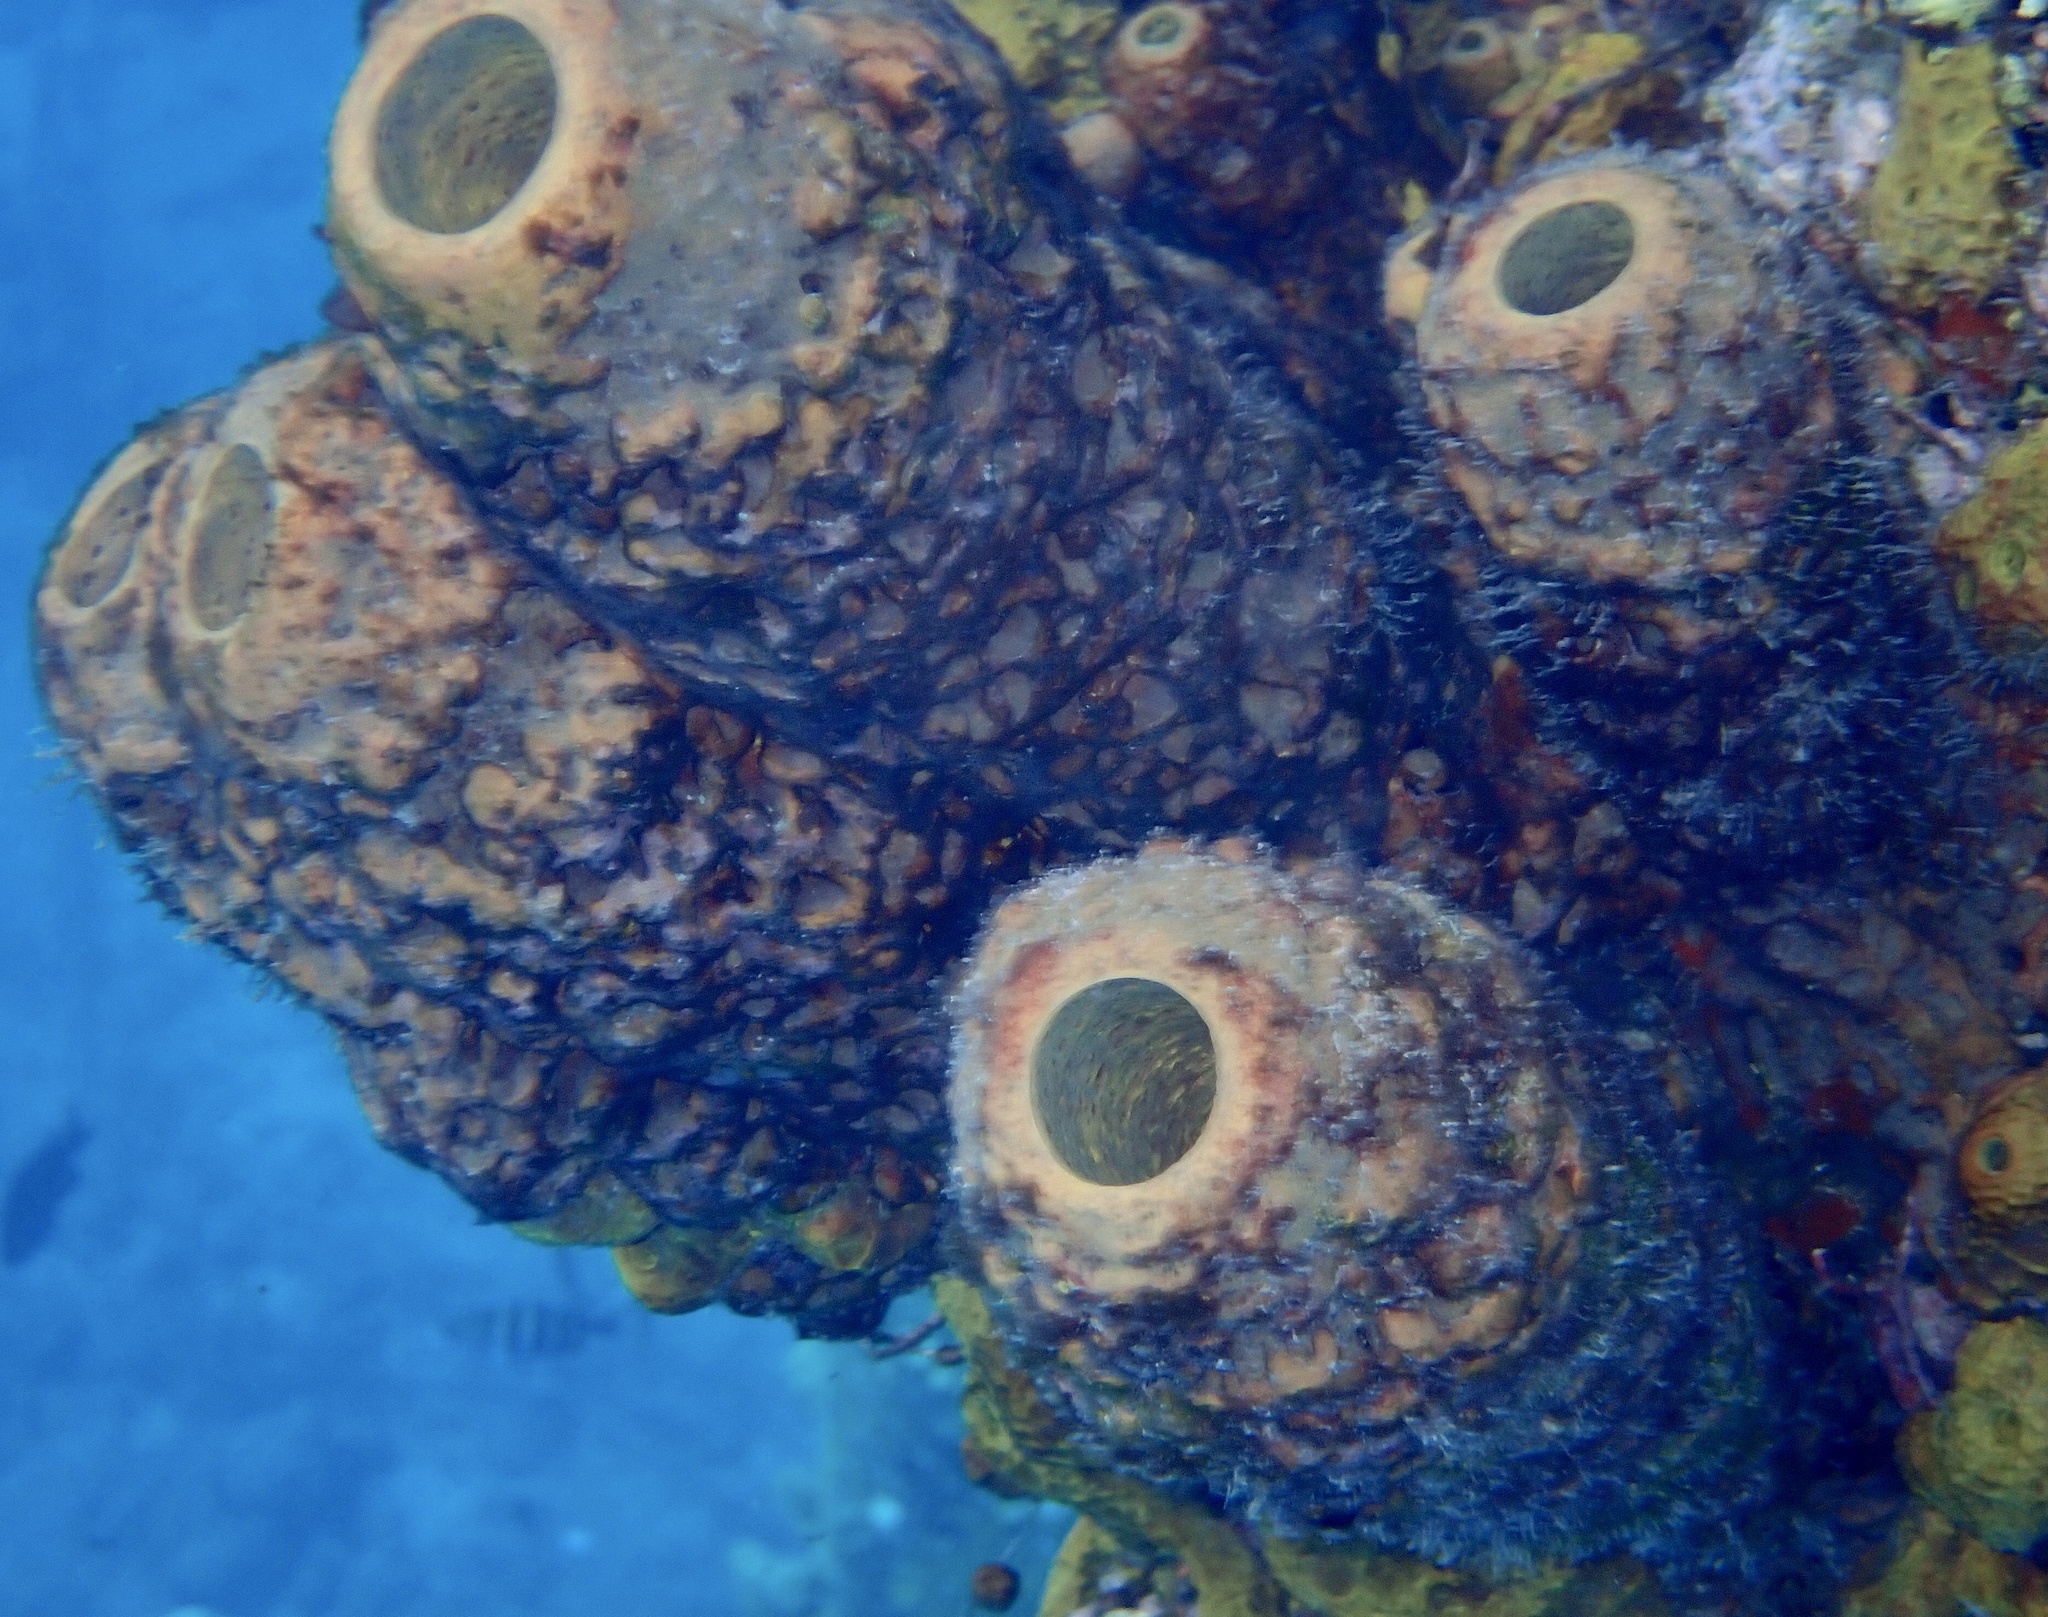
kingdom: Animalia
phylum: Porifera
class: Demospongiae
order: Verongiida
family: Aplysinidae
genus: Aplysina
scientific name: Aplysina archeri
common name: Stove-pipe sponge
